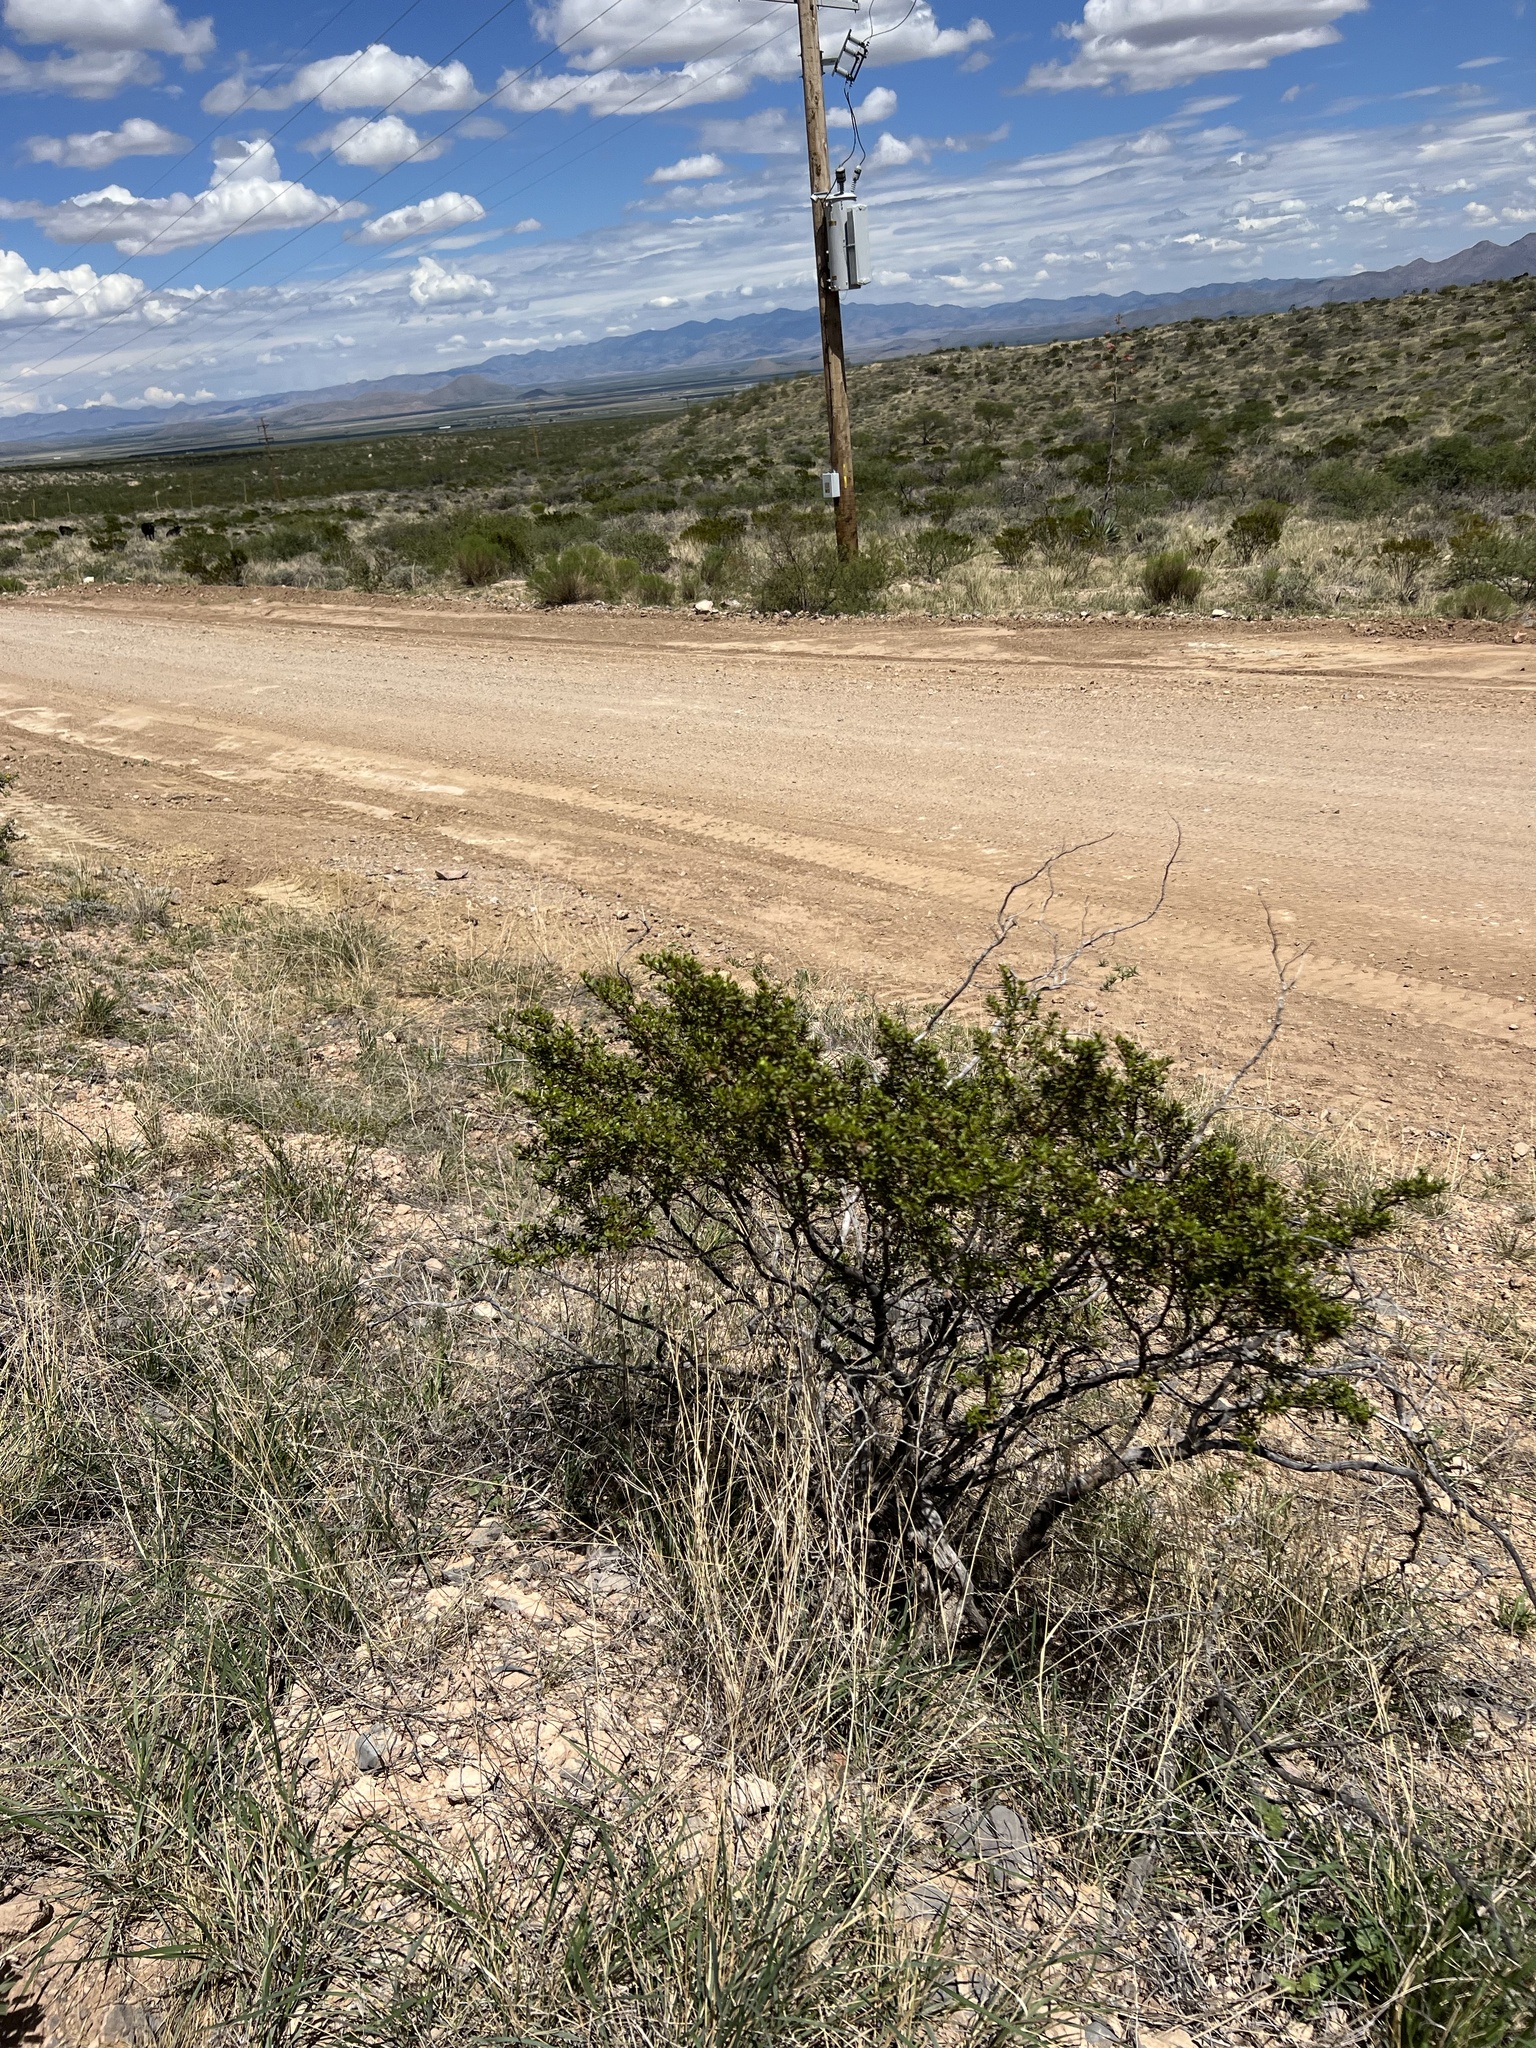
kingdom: Plantae
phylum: Tracheophyta
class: Magnoliopsida
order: Zygophyllales
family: Zygophyllaceae
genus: Larrea
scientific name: Larrea tridentata
